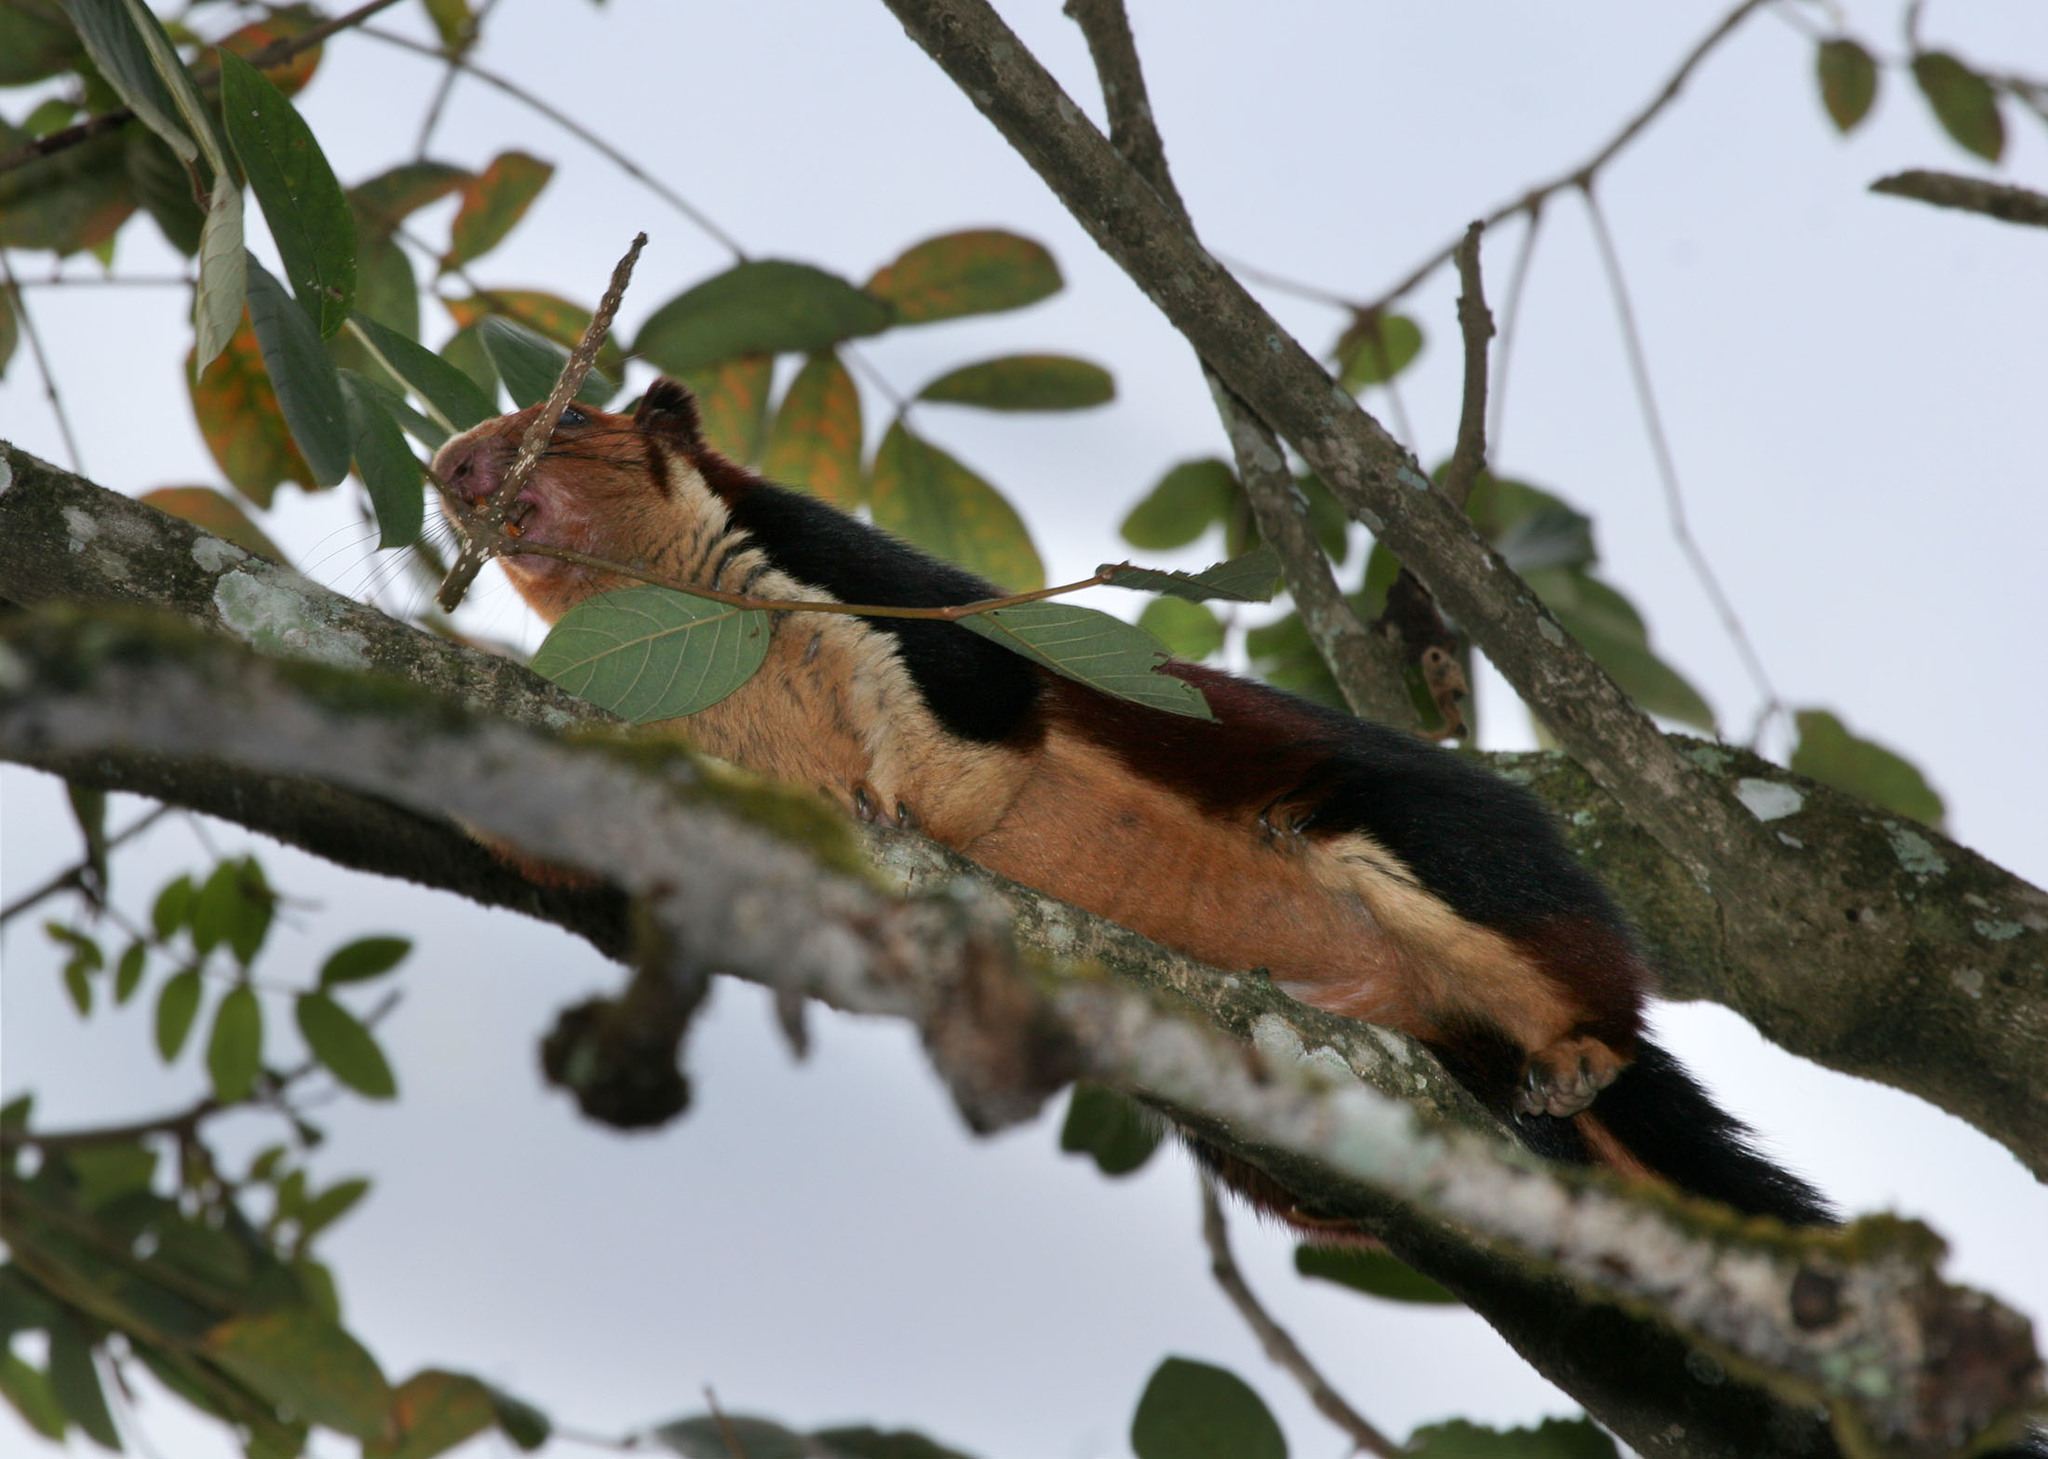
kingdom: Animalia
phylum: Chordata
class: Mammalia
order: Rodentia
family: Sciuridae
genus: Ratufa
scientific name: Ratufa indica
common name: Indian giant squirrel
